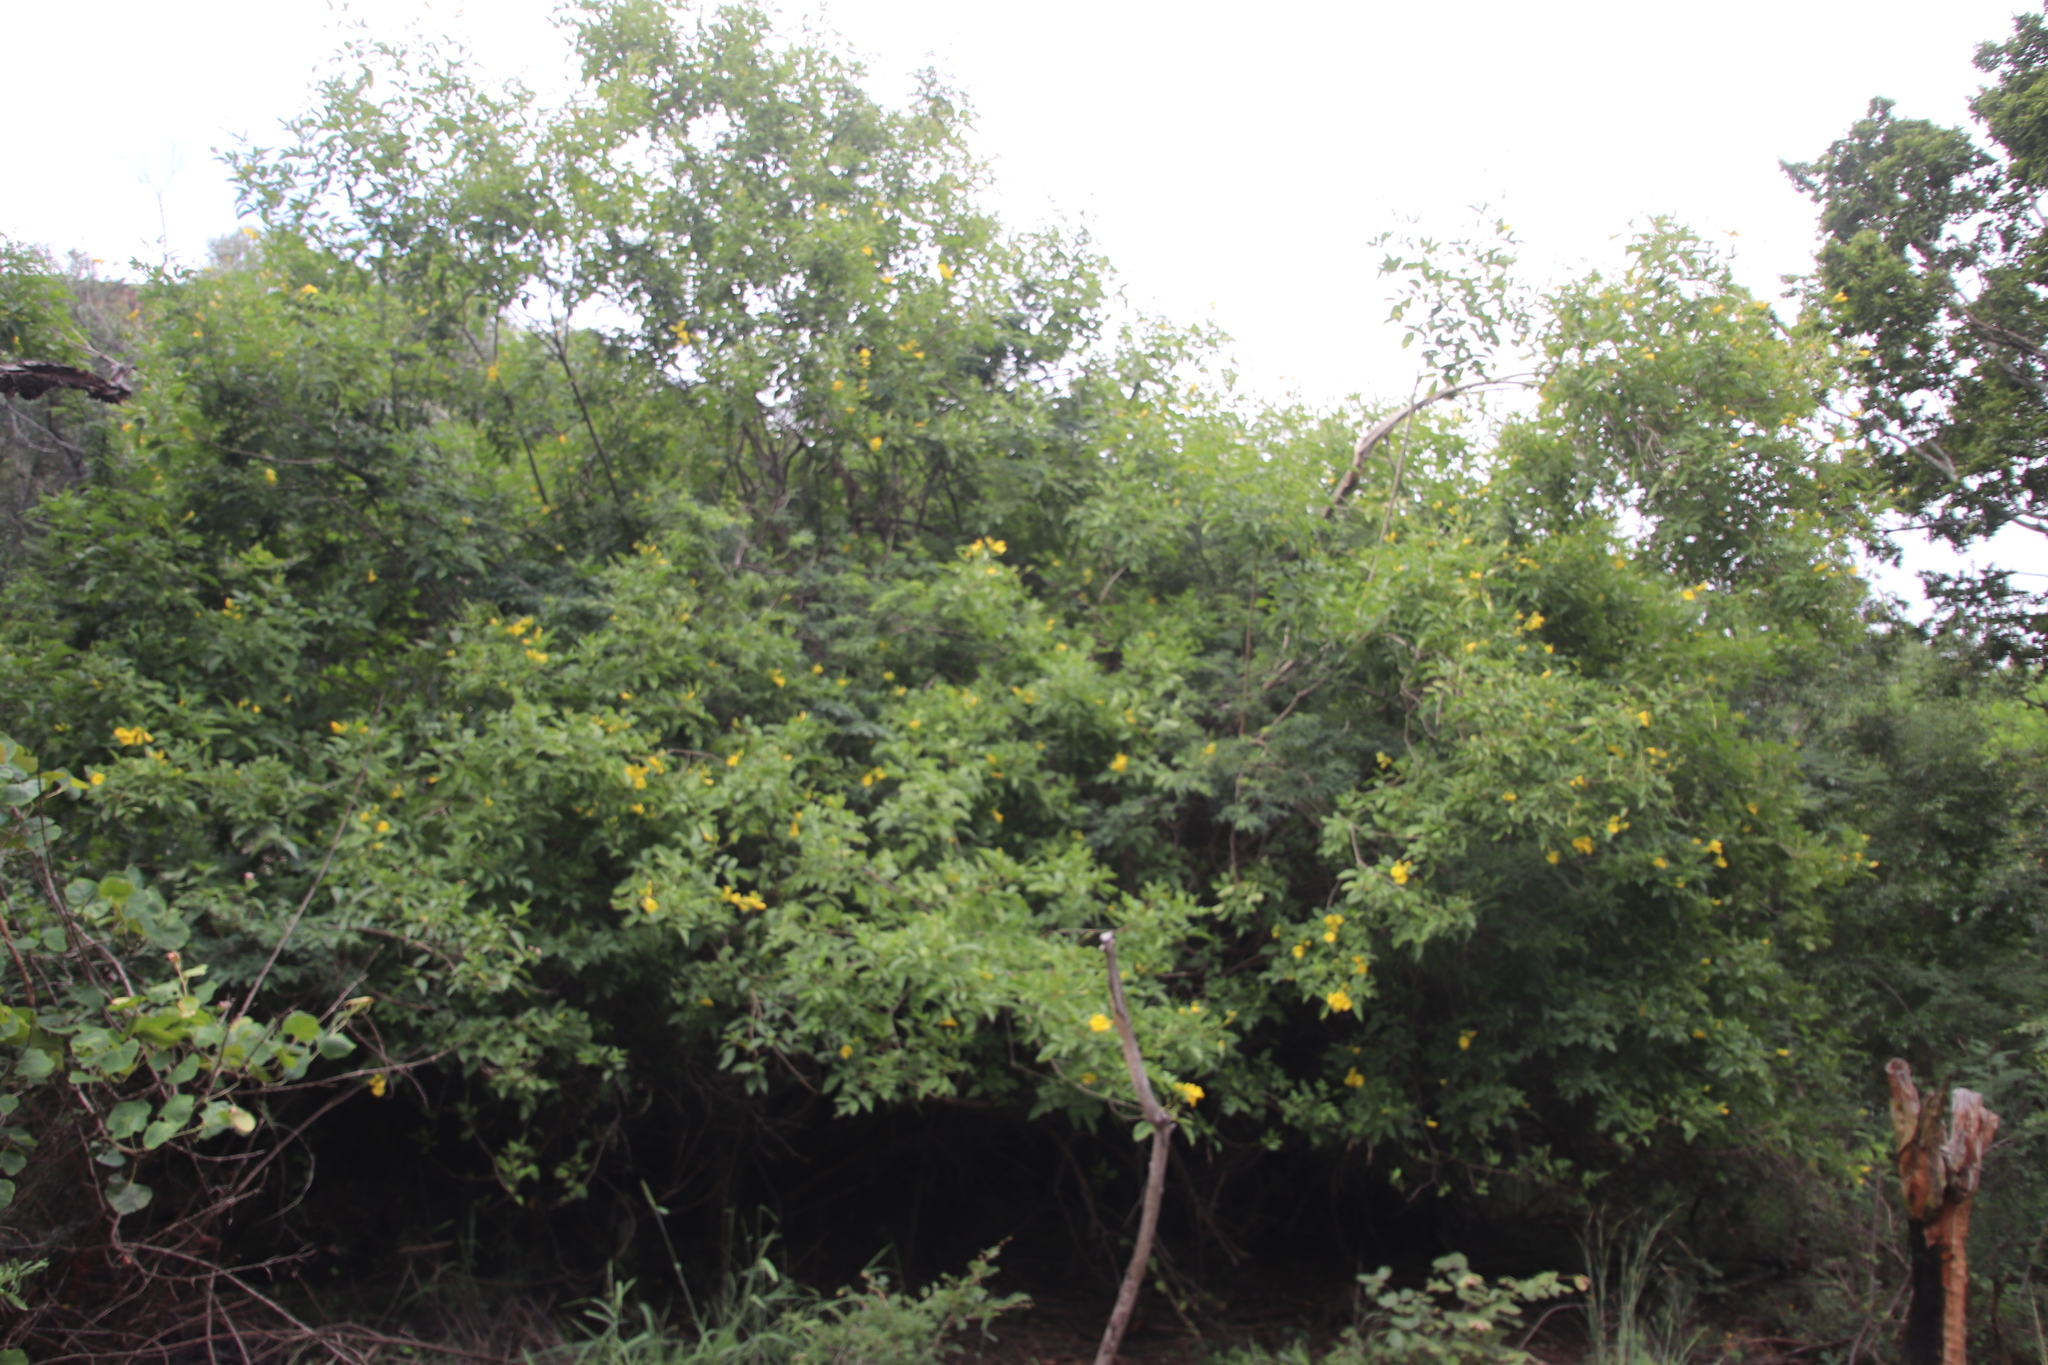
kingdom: Plantae
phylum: Tracheophyta
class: Magnoliopsida
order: Lamiales
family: Bignoniaceae
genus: Tecoma
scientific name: Tecoma stans
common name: Yellow trumpetbush
